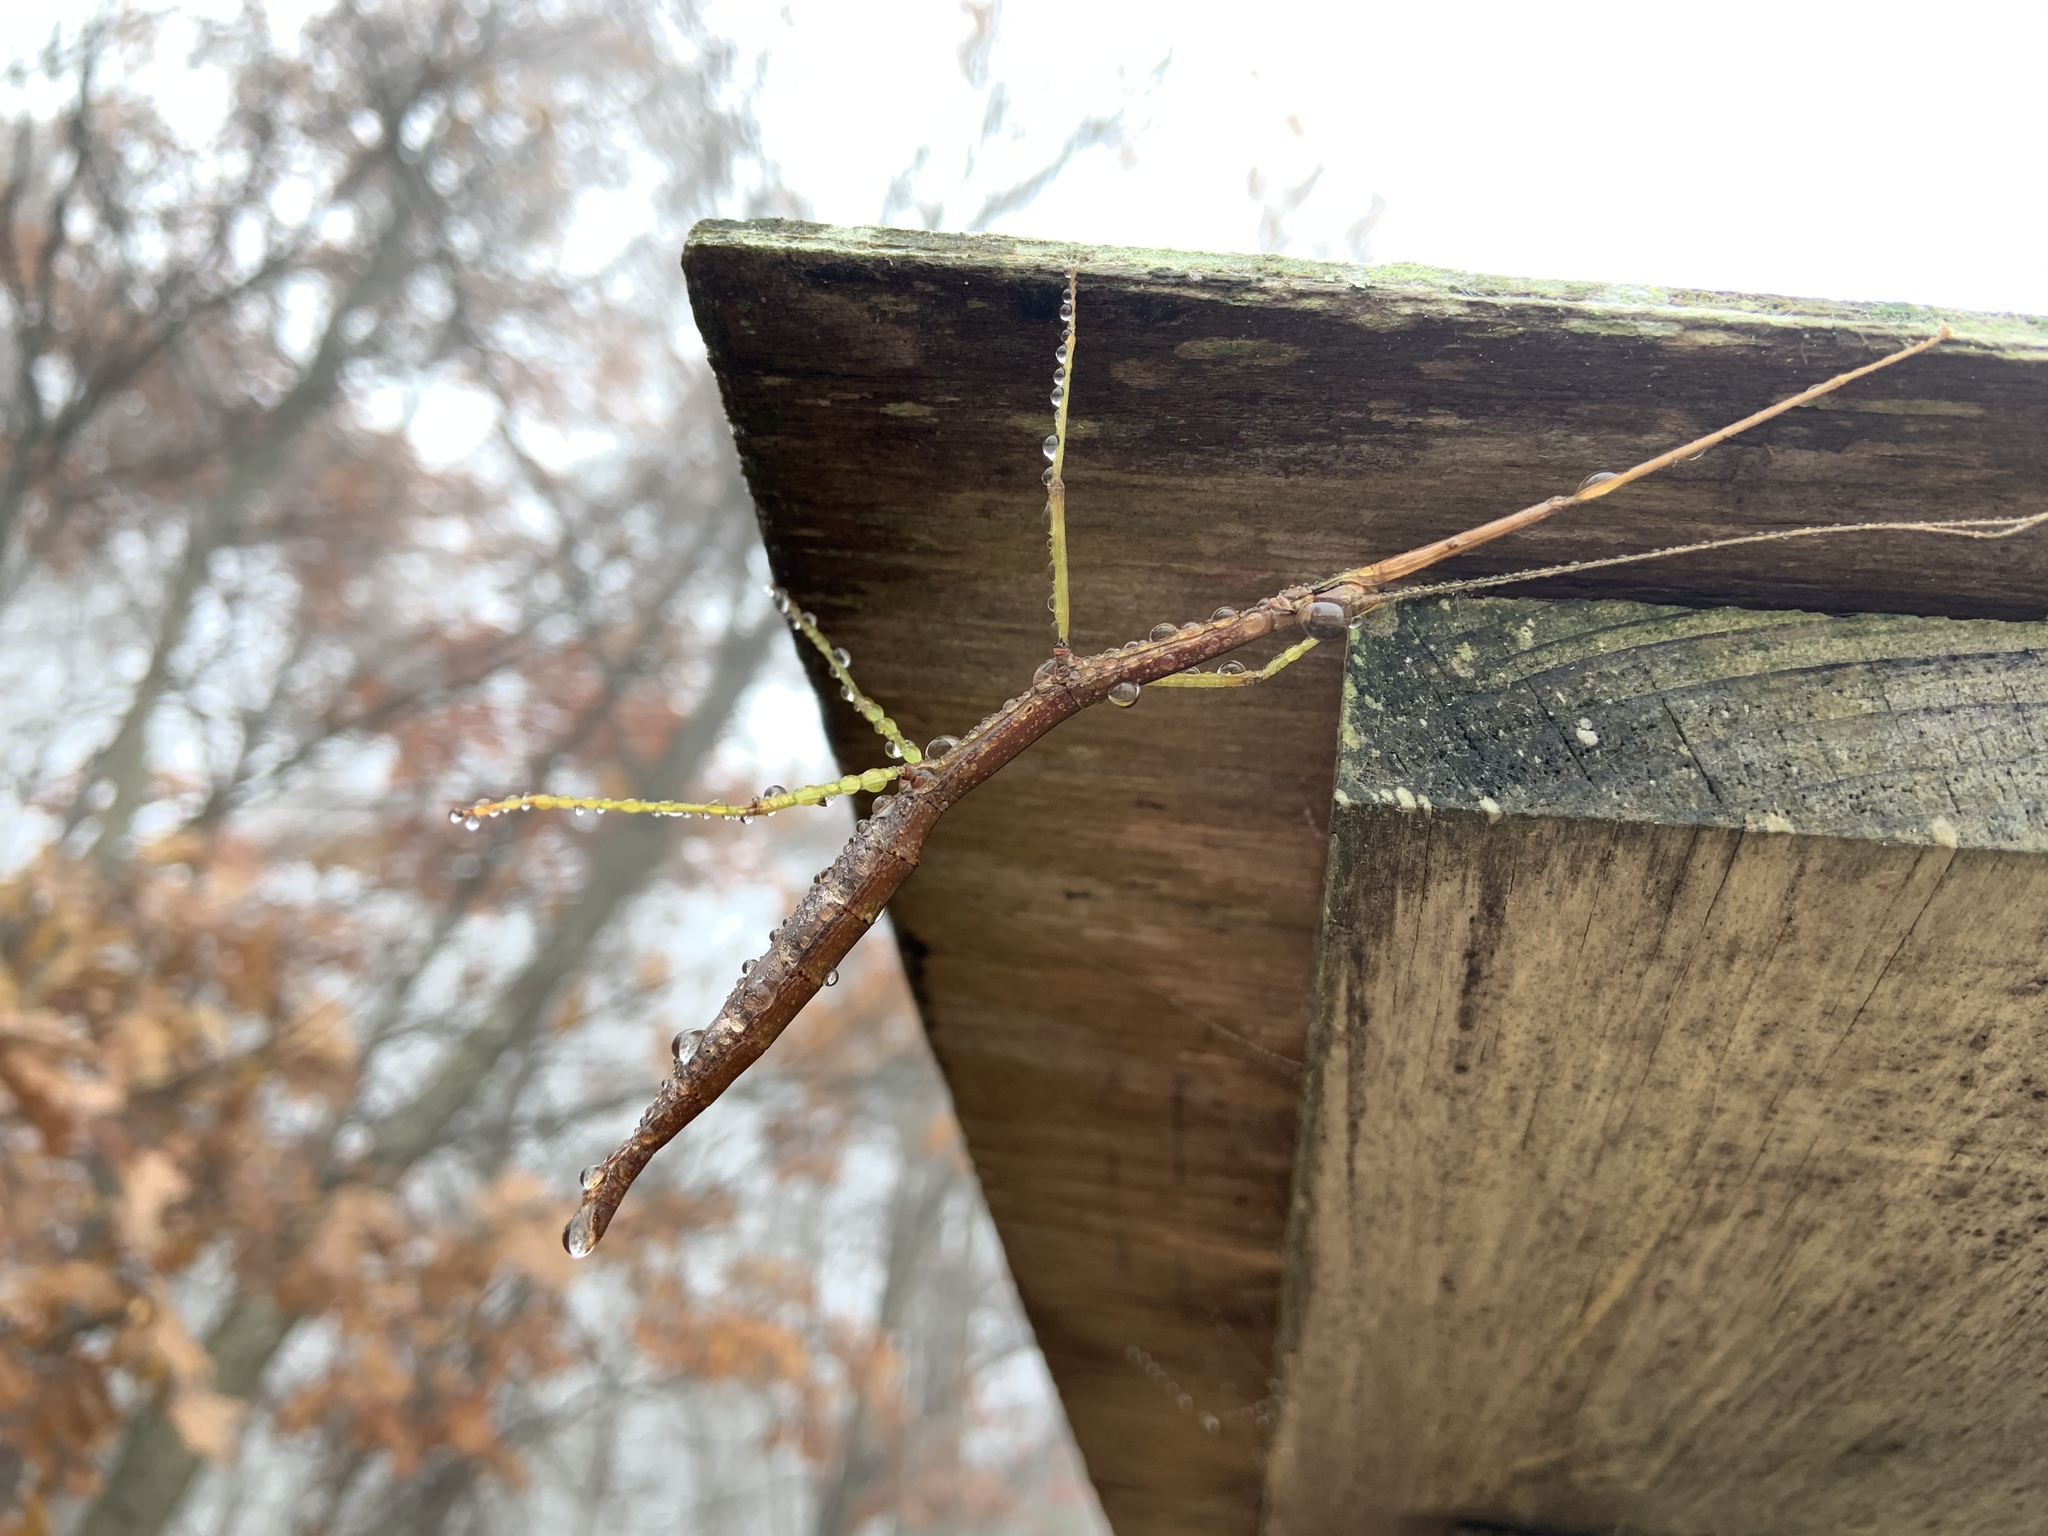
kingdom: Animalia
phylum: Arthropoda
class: Insecta
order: Phasmida
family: Diapheromeridae
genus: Diapheromera
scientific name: Diapheromera femorata
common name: Common american walkingstick
